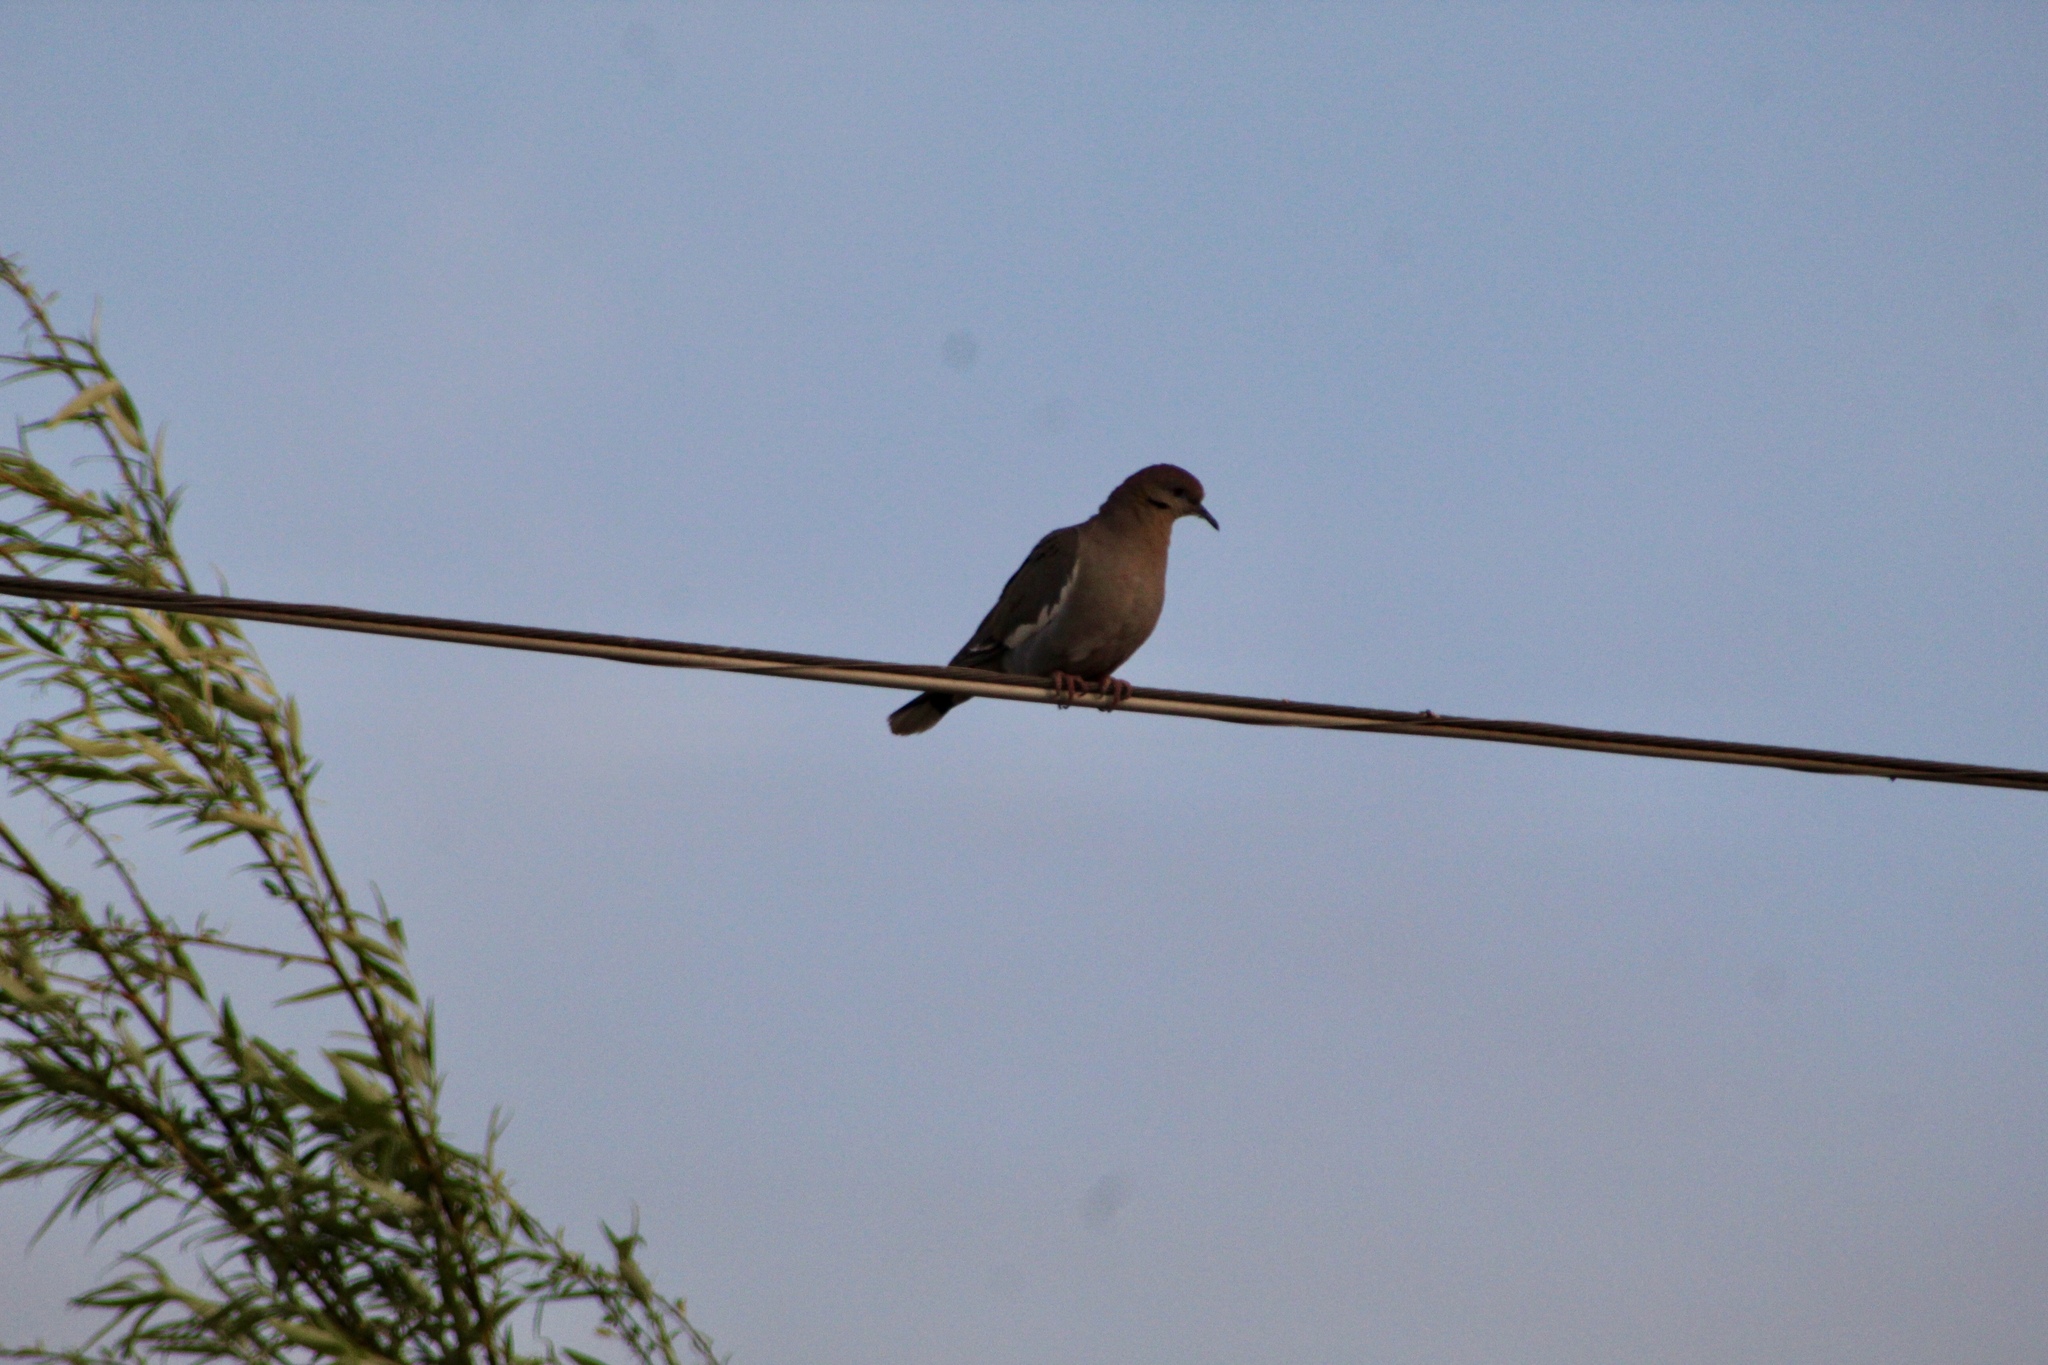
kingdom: Animalia
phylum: Chordata
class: Aves
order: Columbiformes
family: Columbidae
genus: Zenaida
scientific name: Zenaida asiatica
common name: White-winged dove
